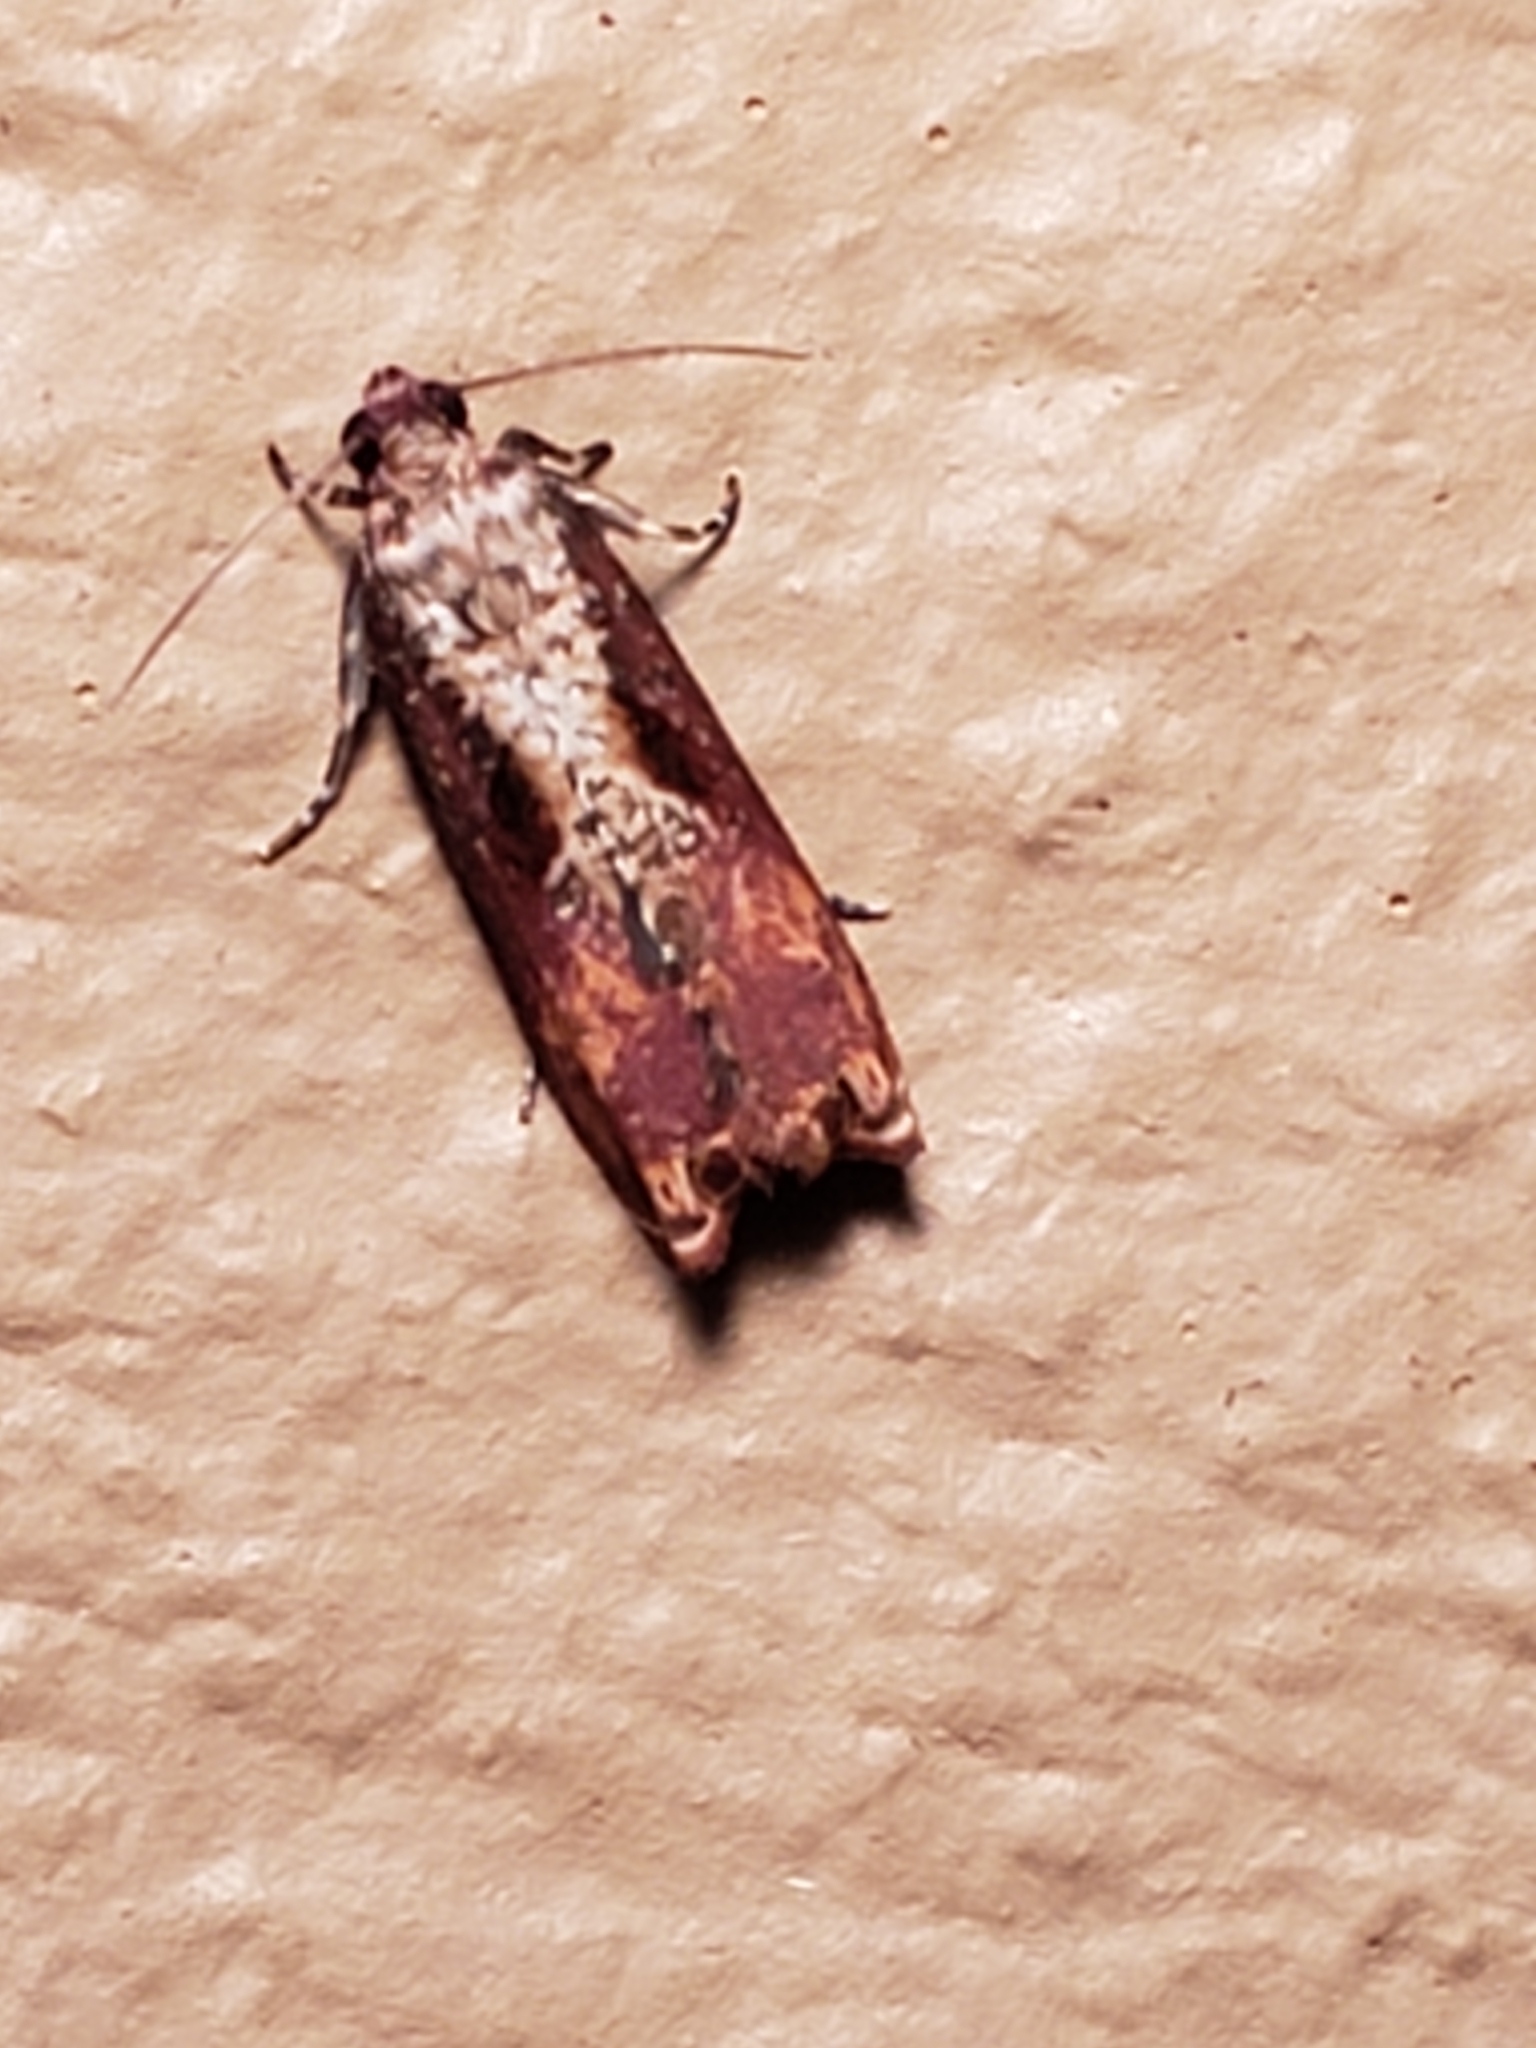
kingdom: Animalia
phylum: Arthropoda
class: Insecta
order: Lepidoptera
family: Tortricidae
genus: Episimus
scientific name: Episimus tyrius
